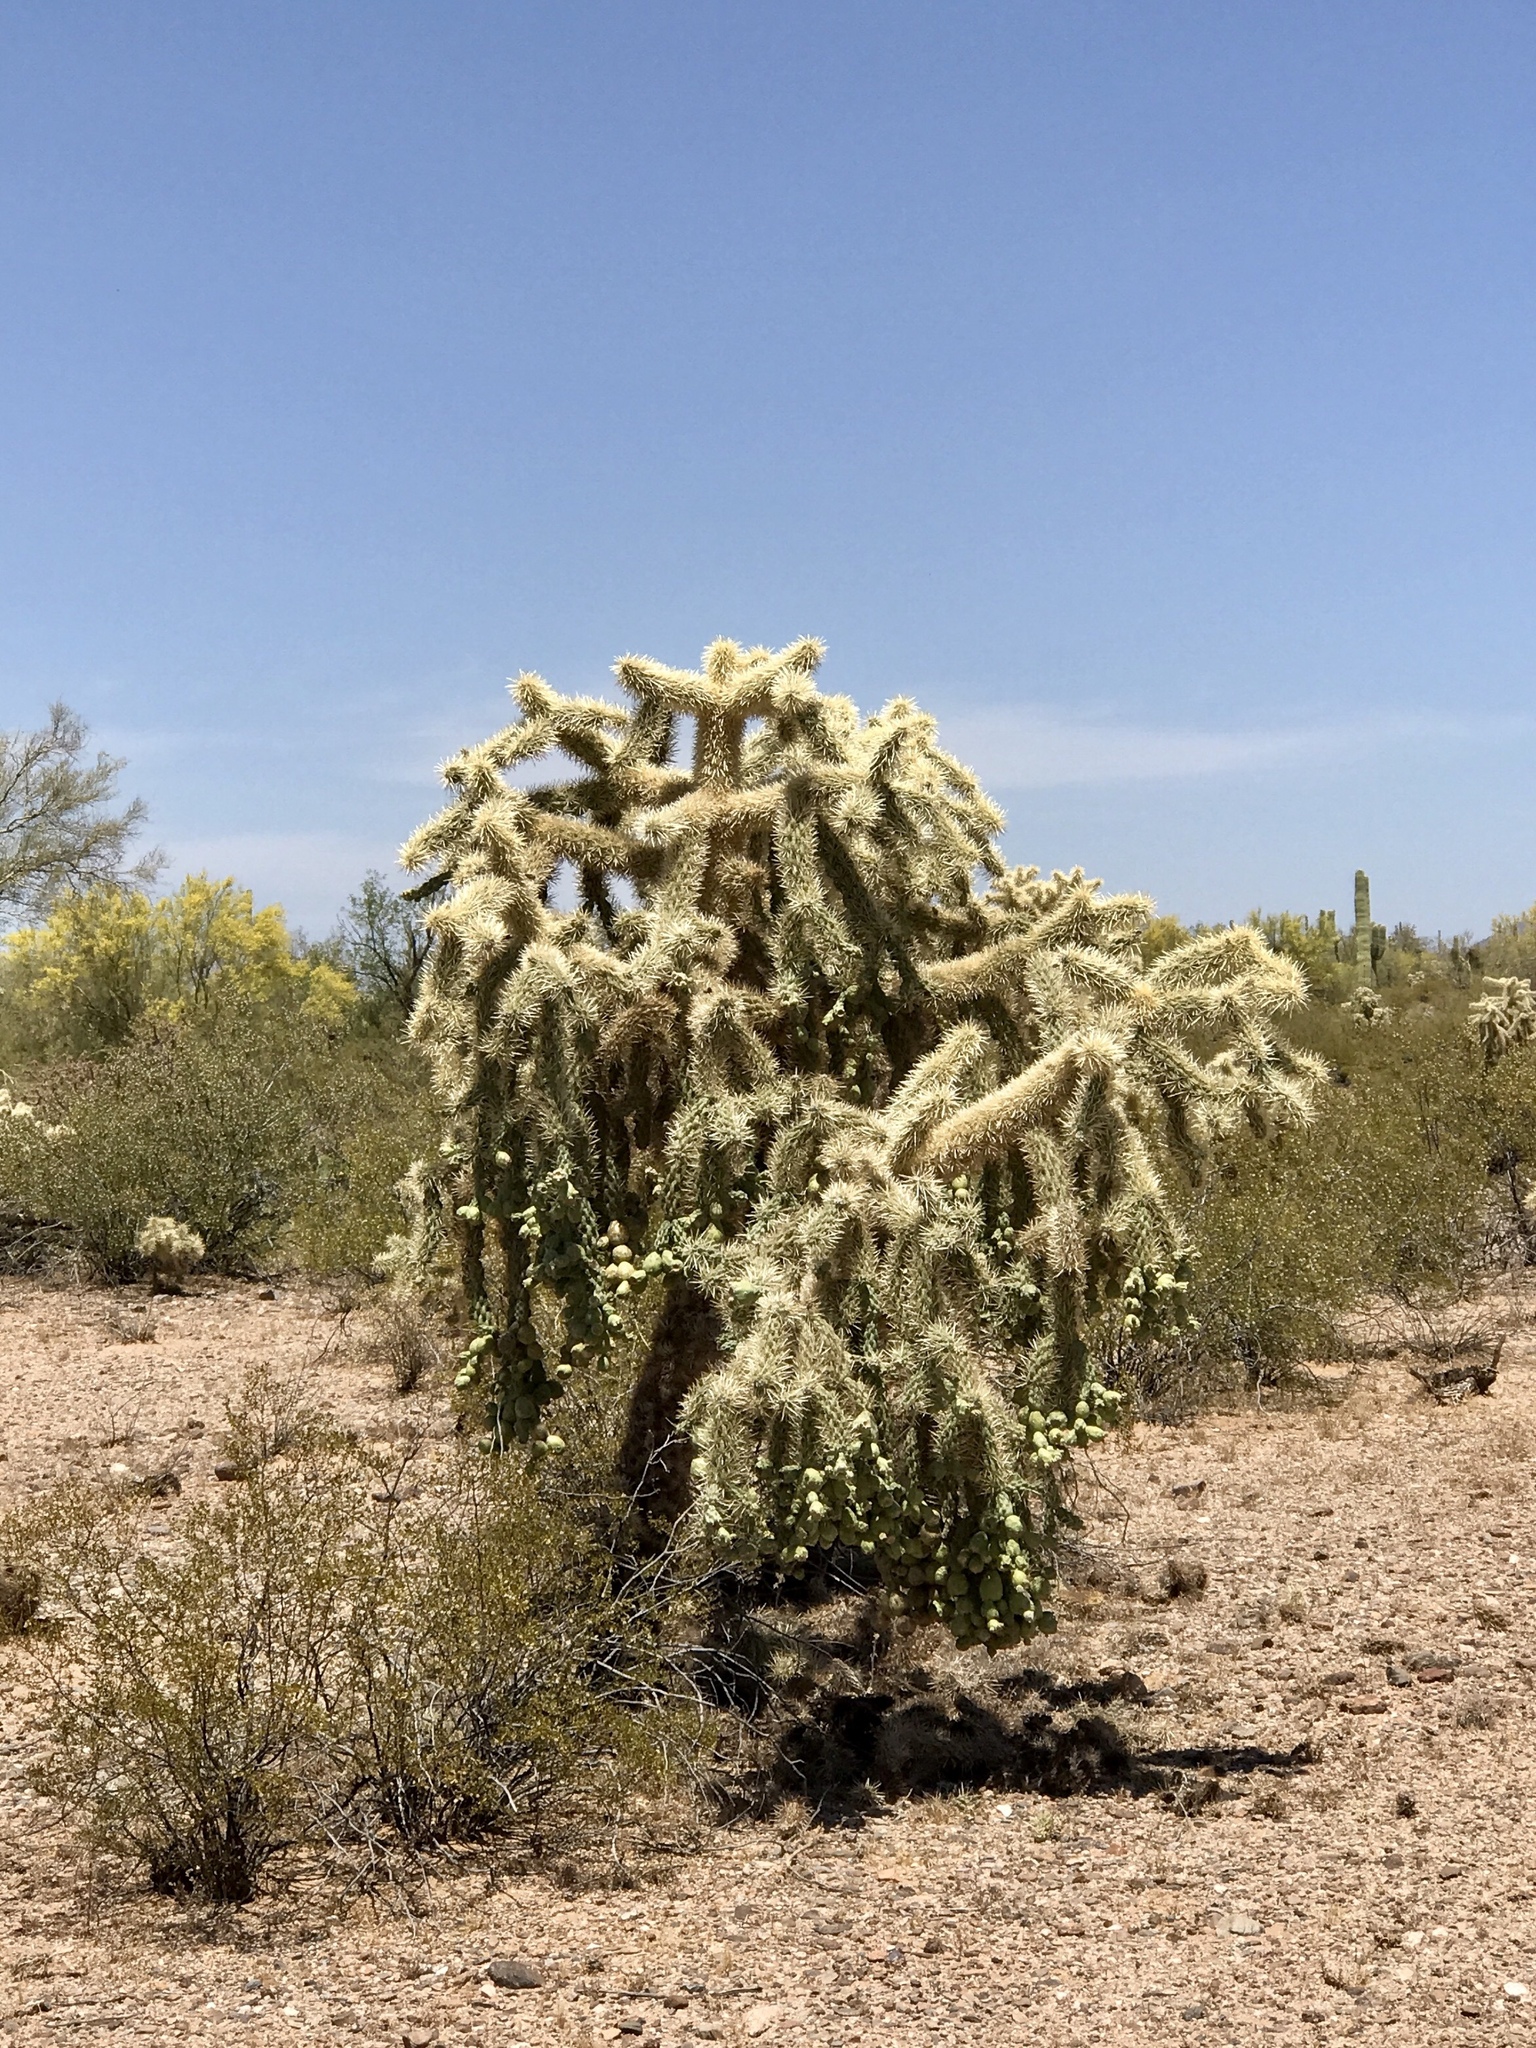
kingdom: Plantae
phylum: Tracheophyta
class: Magnoliopsida
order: Caryophyllales
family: Cactaceae
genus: Cylindropuntia
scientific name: Cylindropuntia fulgida
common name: Jumping cholla
